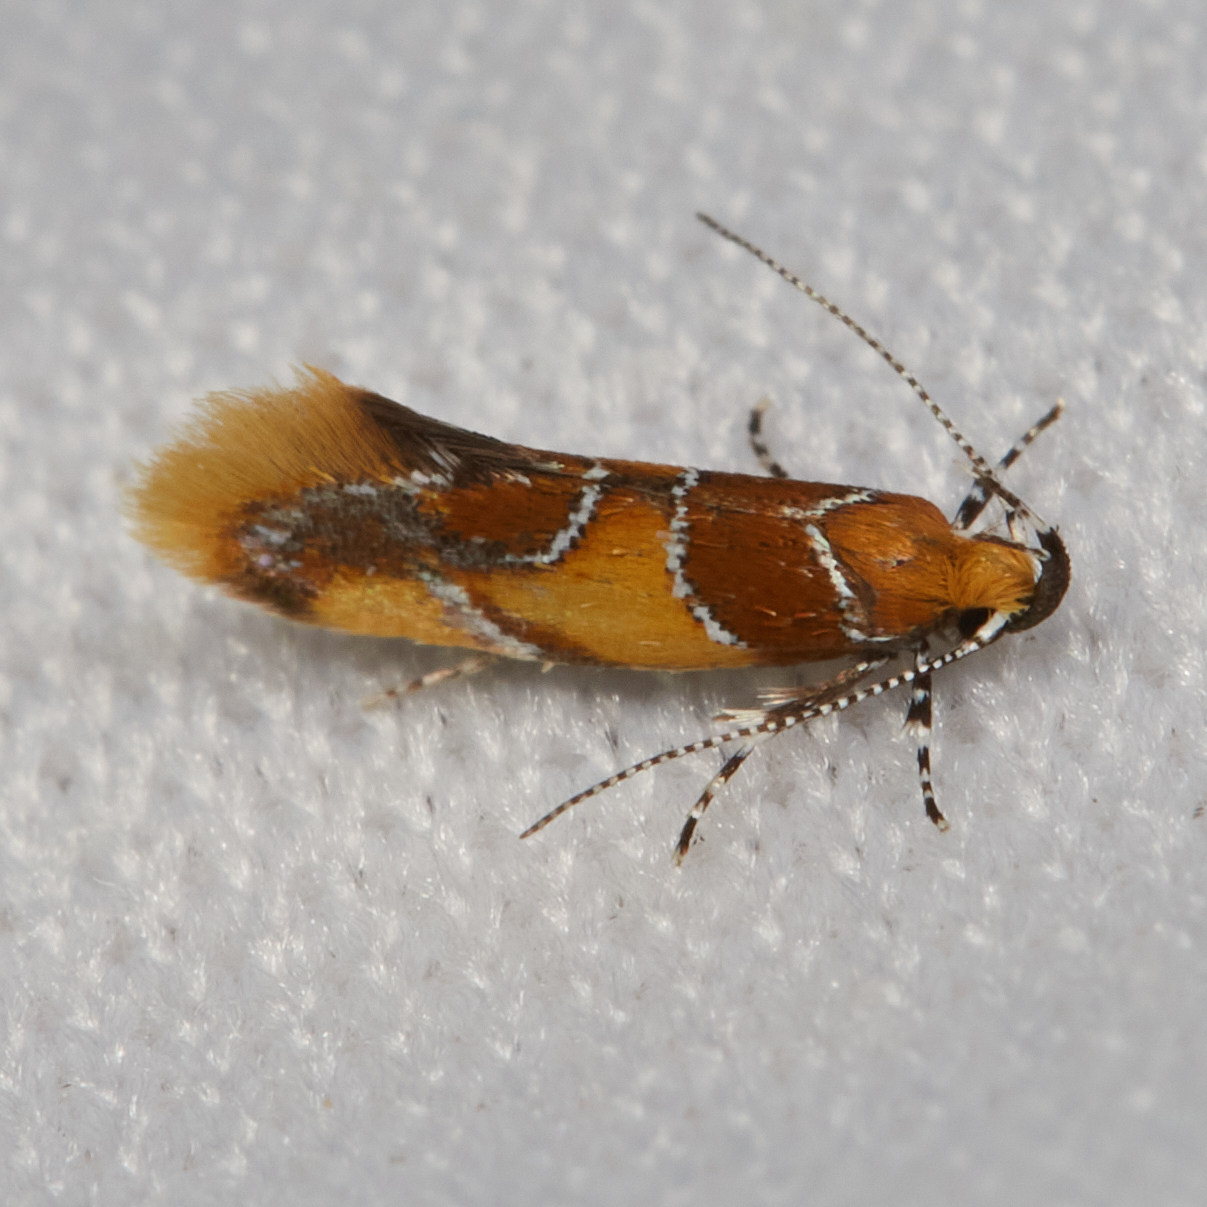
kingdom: Animalia
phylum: Arthropoda
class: Insecta
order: Lepidoptera
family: Oecophoridae
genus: Callima
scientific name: Callima argenticinctella
